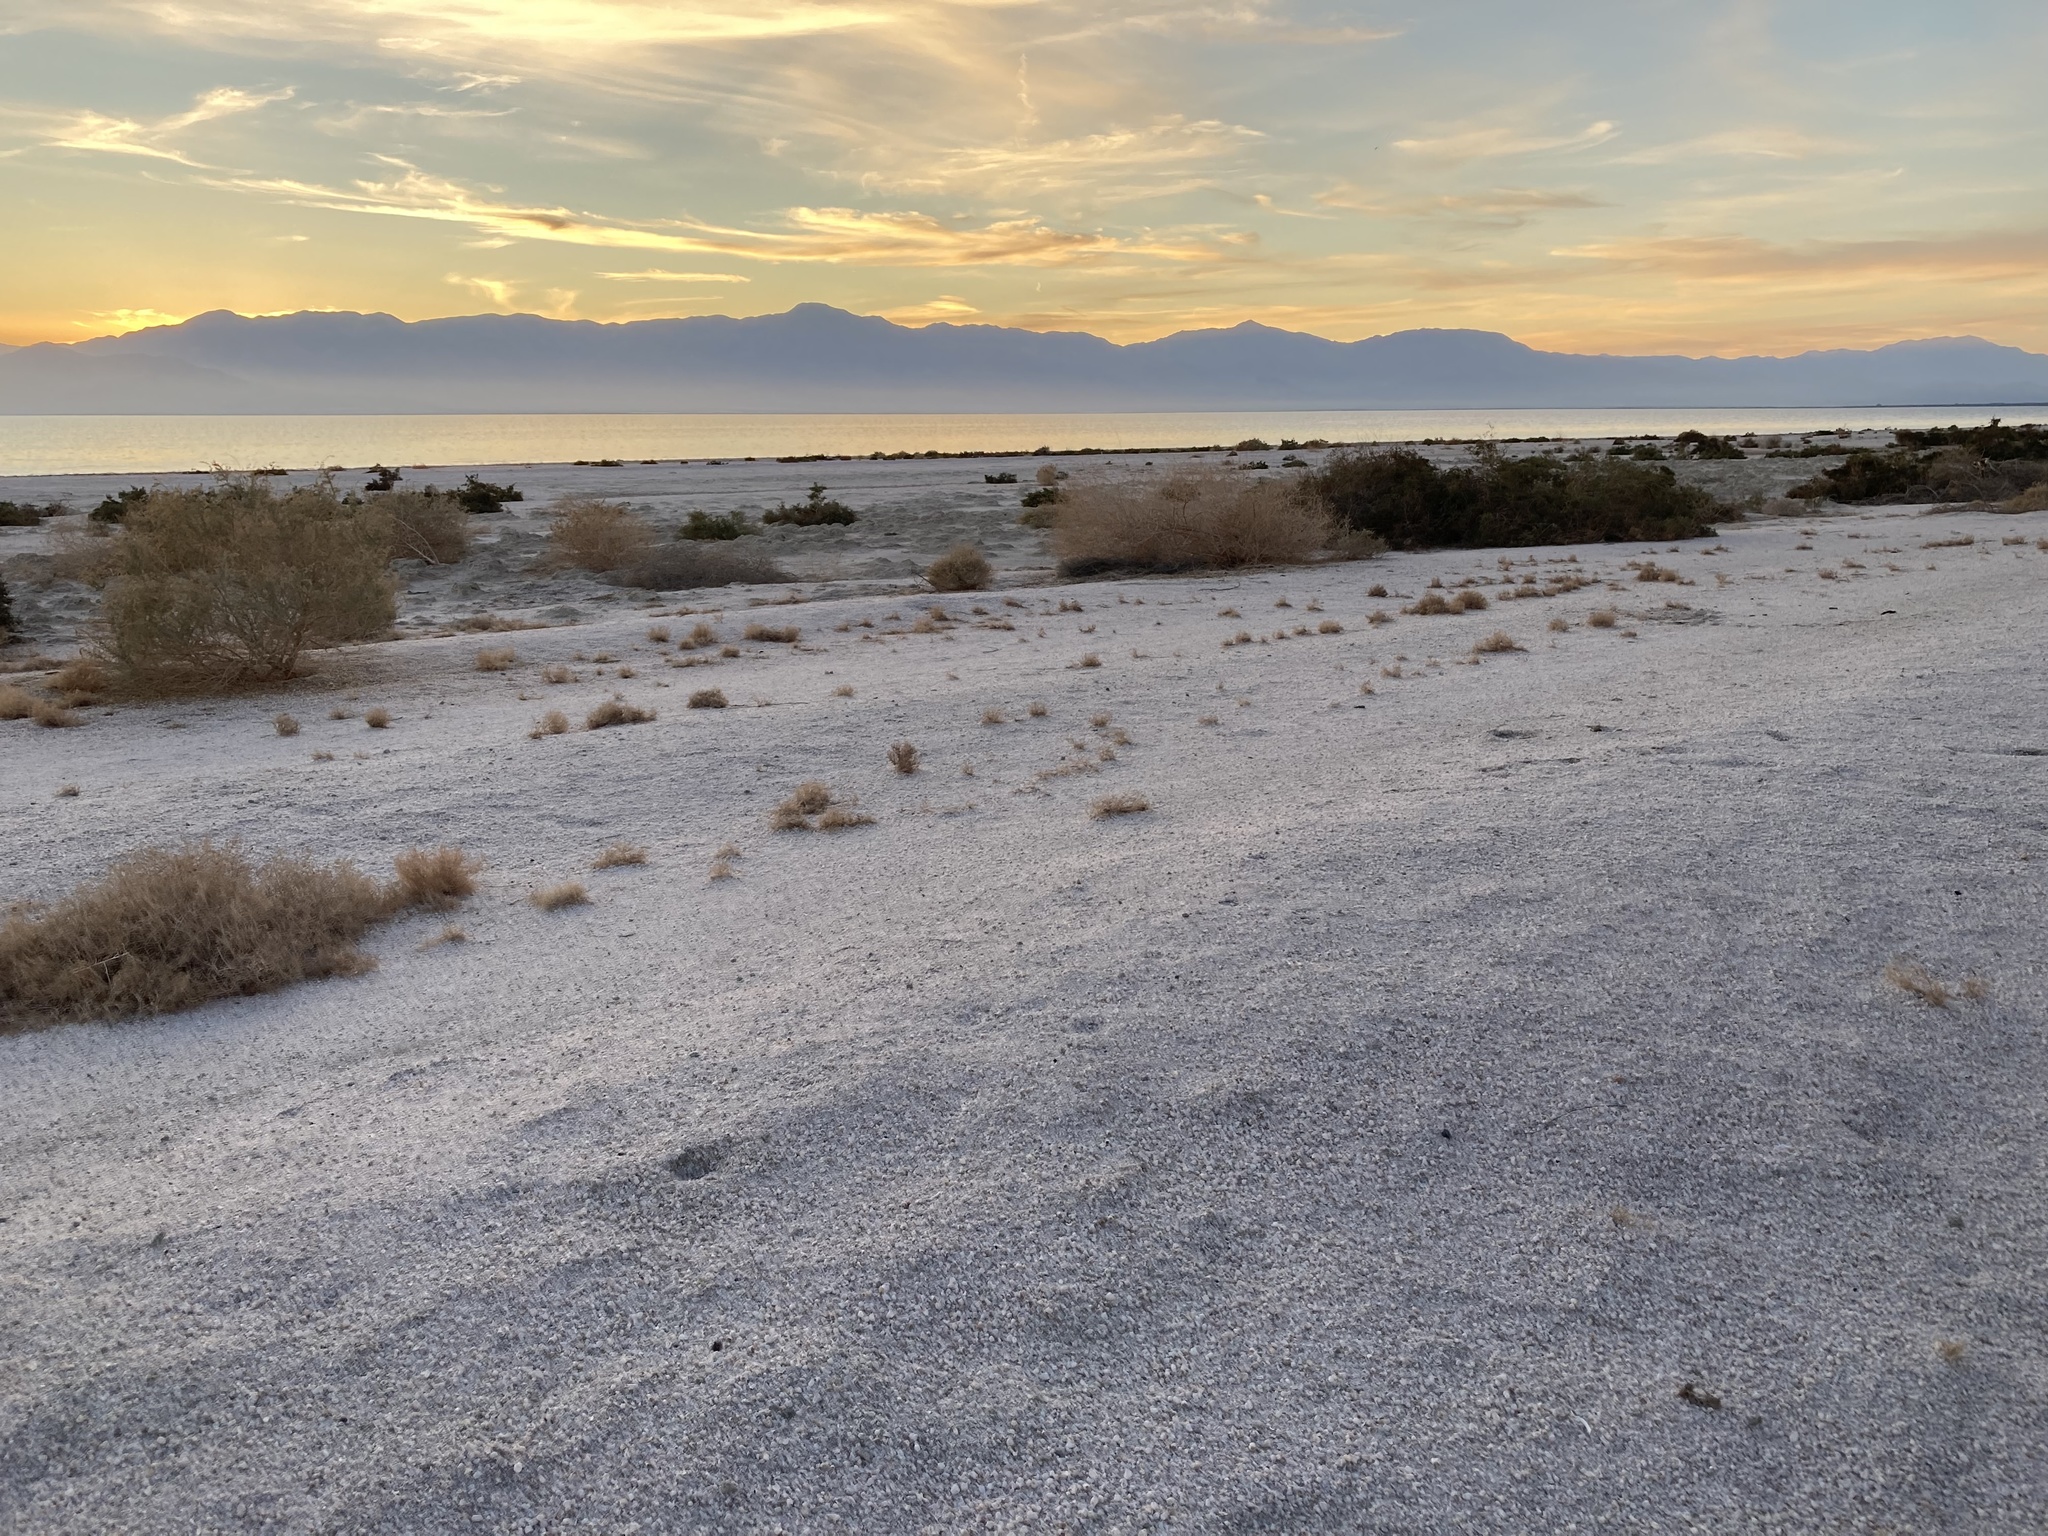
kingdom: Animalia
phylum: Arthropoda
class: Maxillopoda
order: Sessilia
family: Balanidae
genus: Amphibalanus
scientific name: Amphibalanus amphitrite
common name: Striped acorn barnacle
